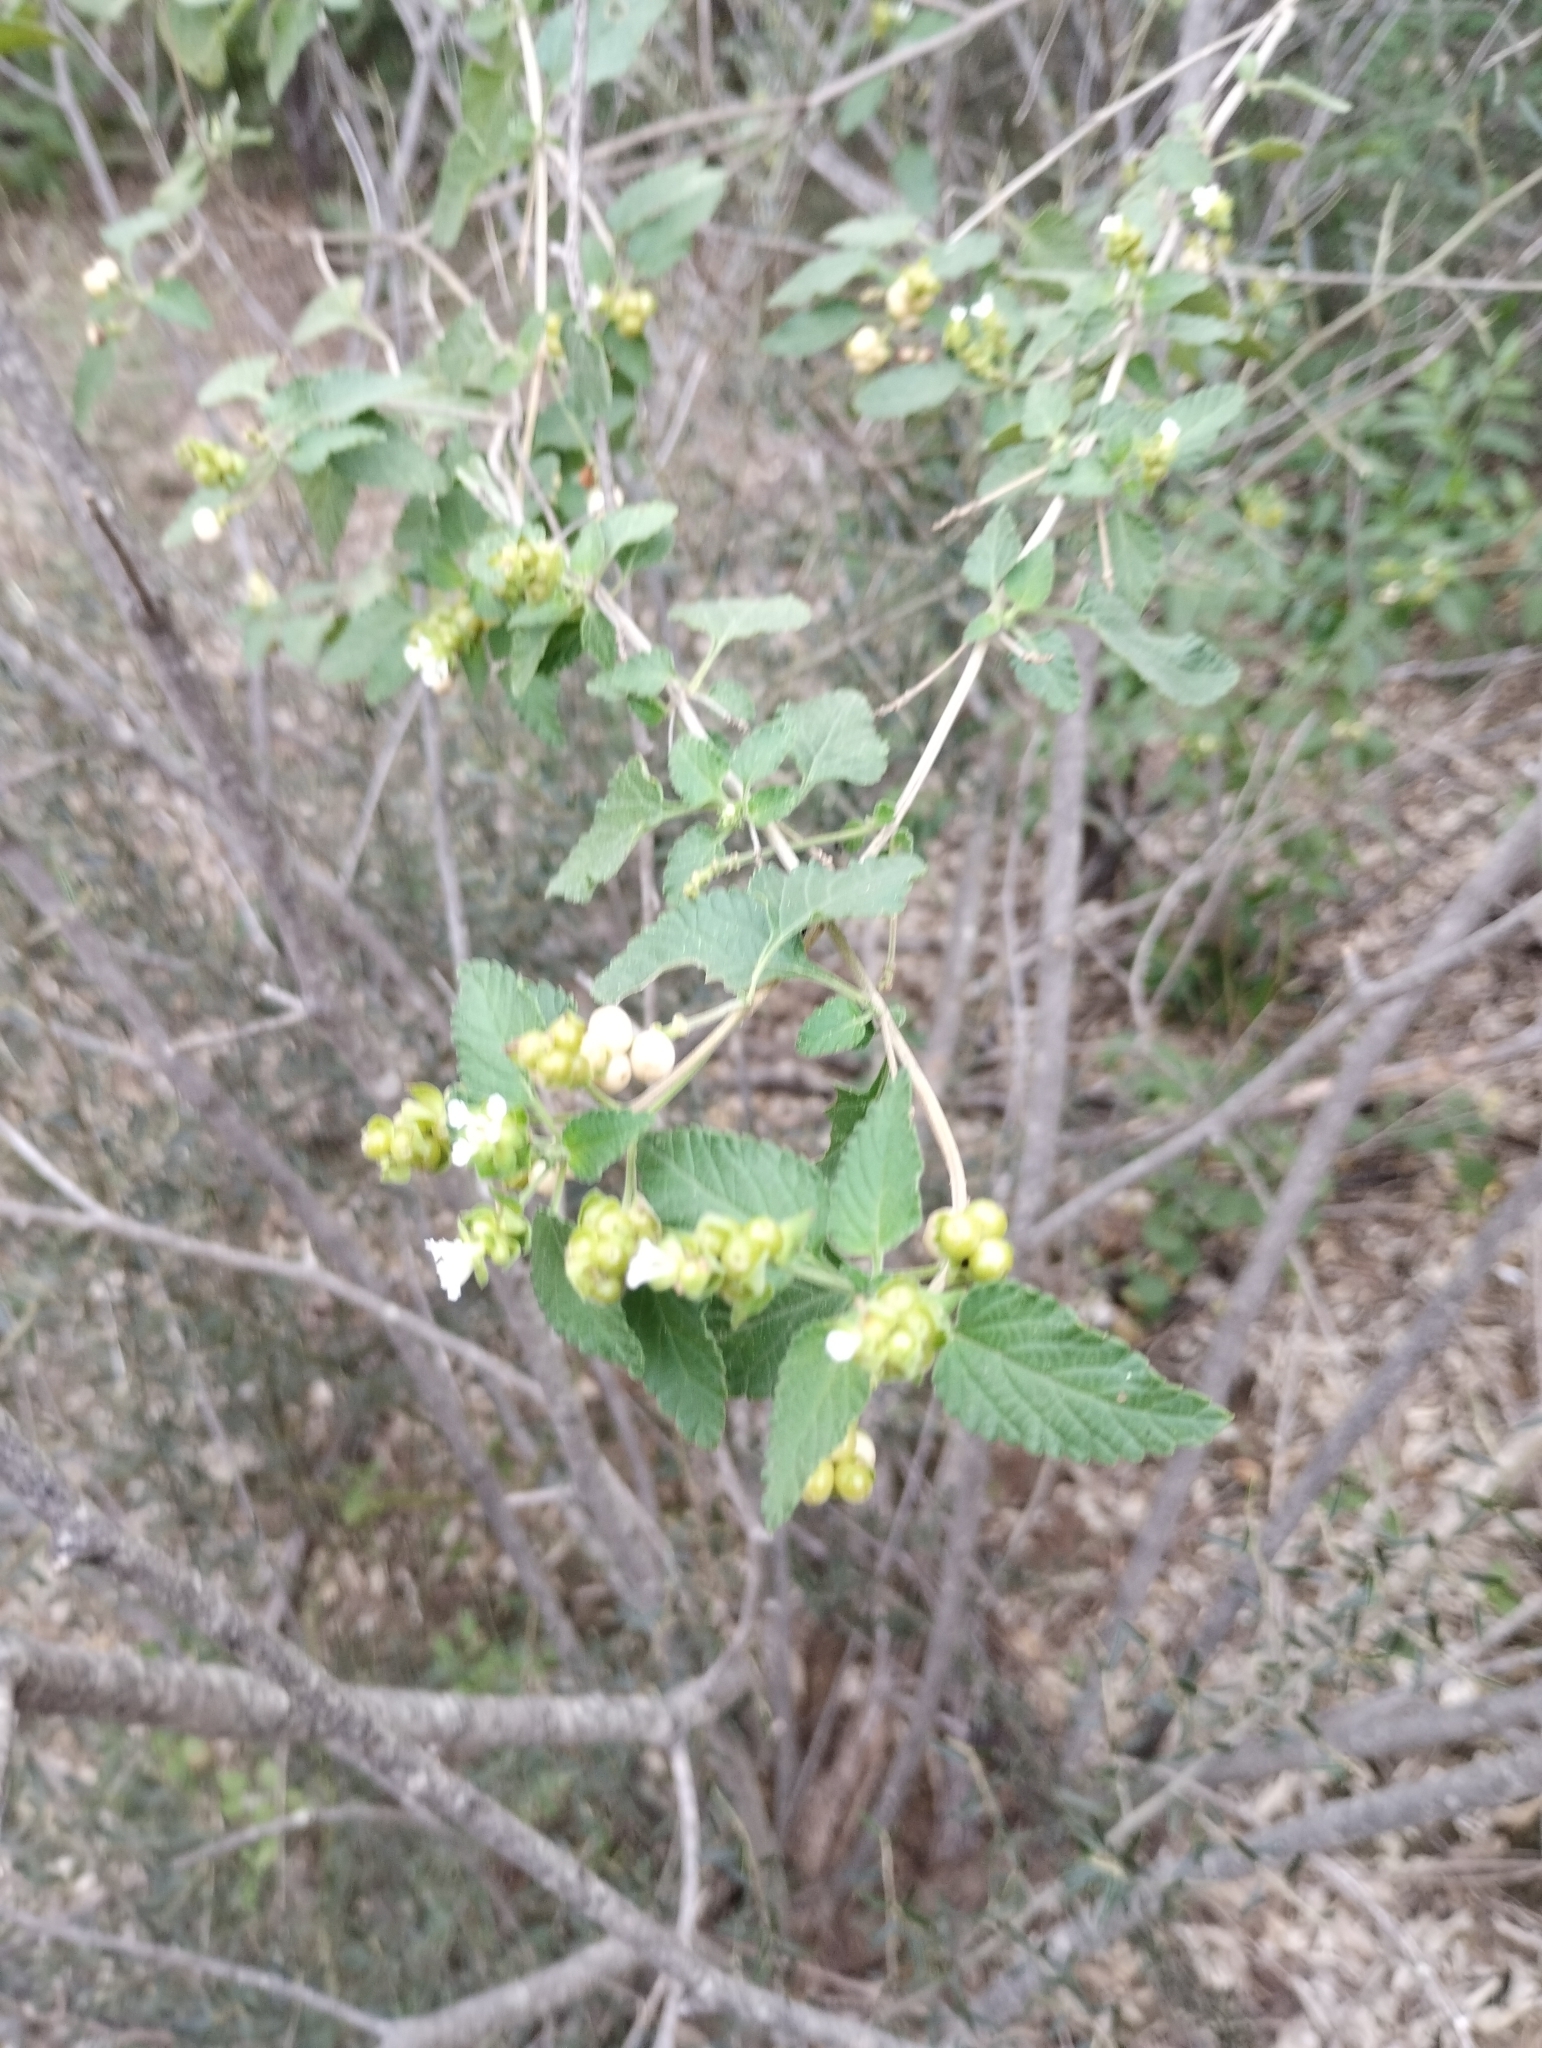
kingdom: Plantae
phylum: Tracheophyta
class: Magnoliopsida
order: Lamiales
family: Verbenaceae
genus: Lantana
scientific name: Lantana grisebachii
